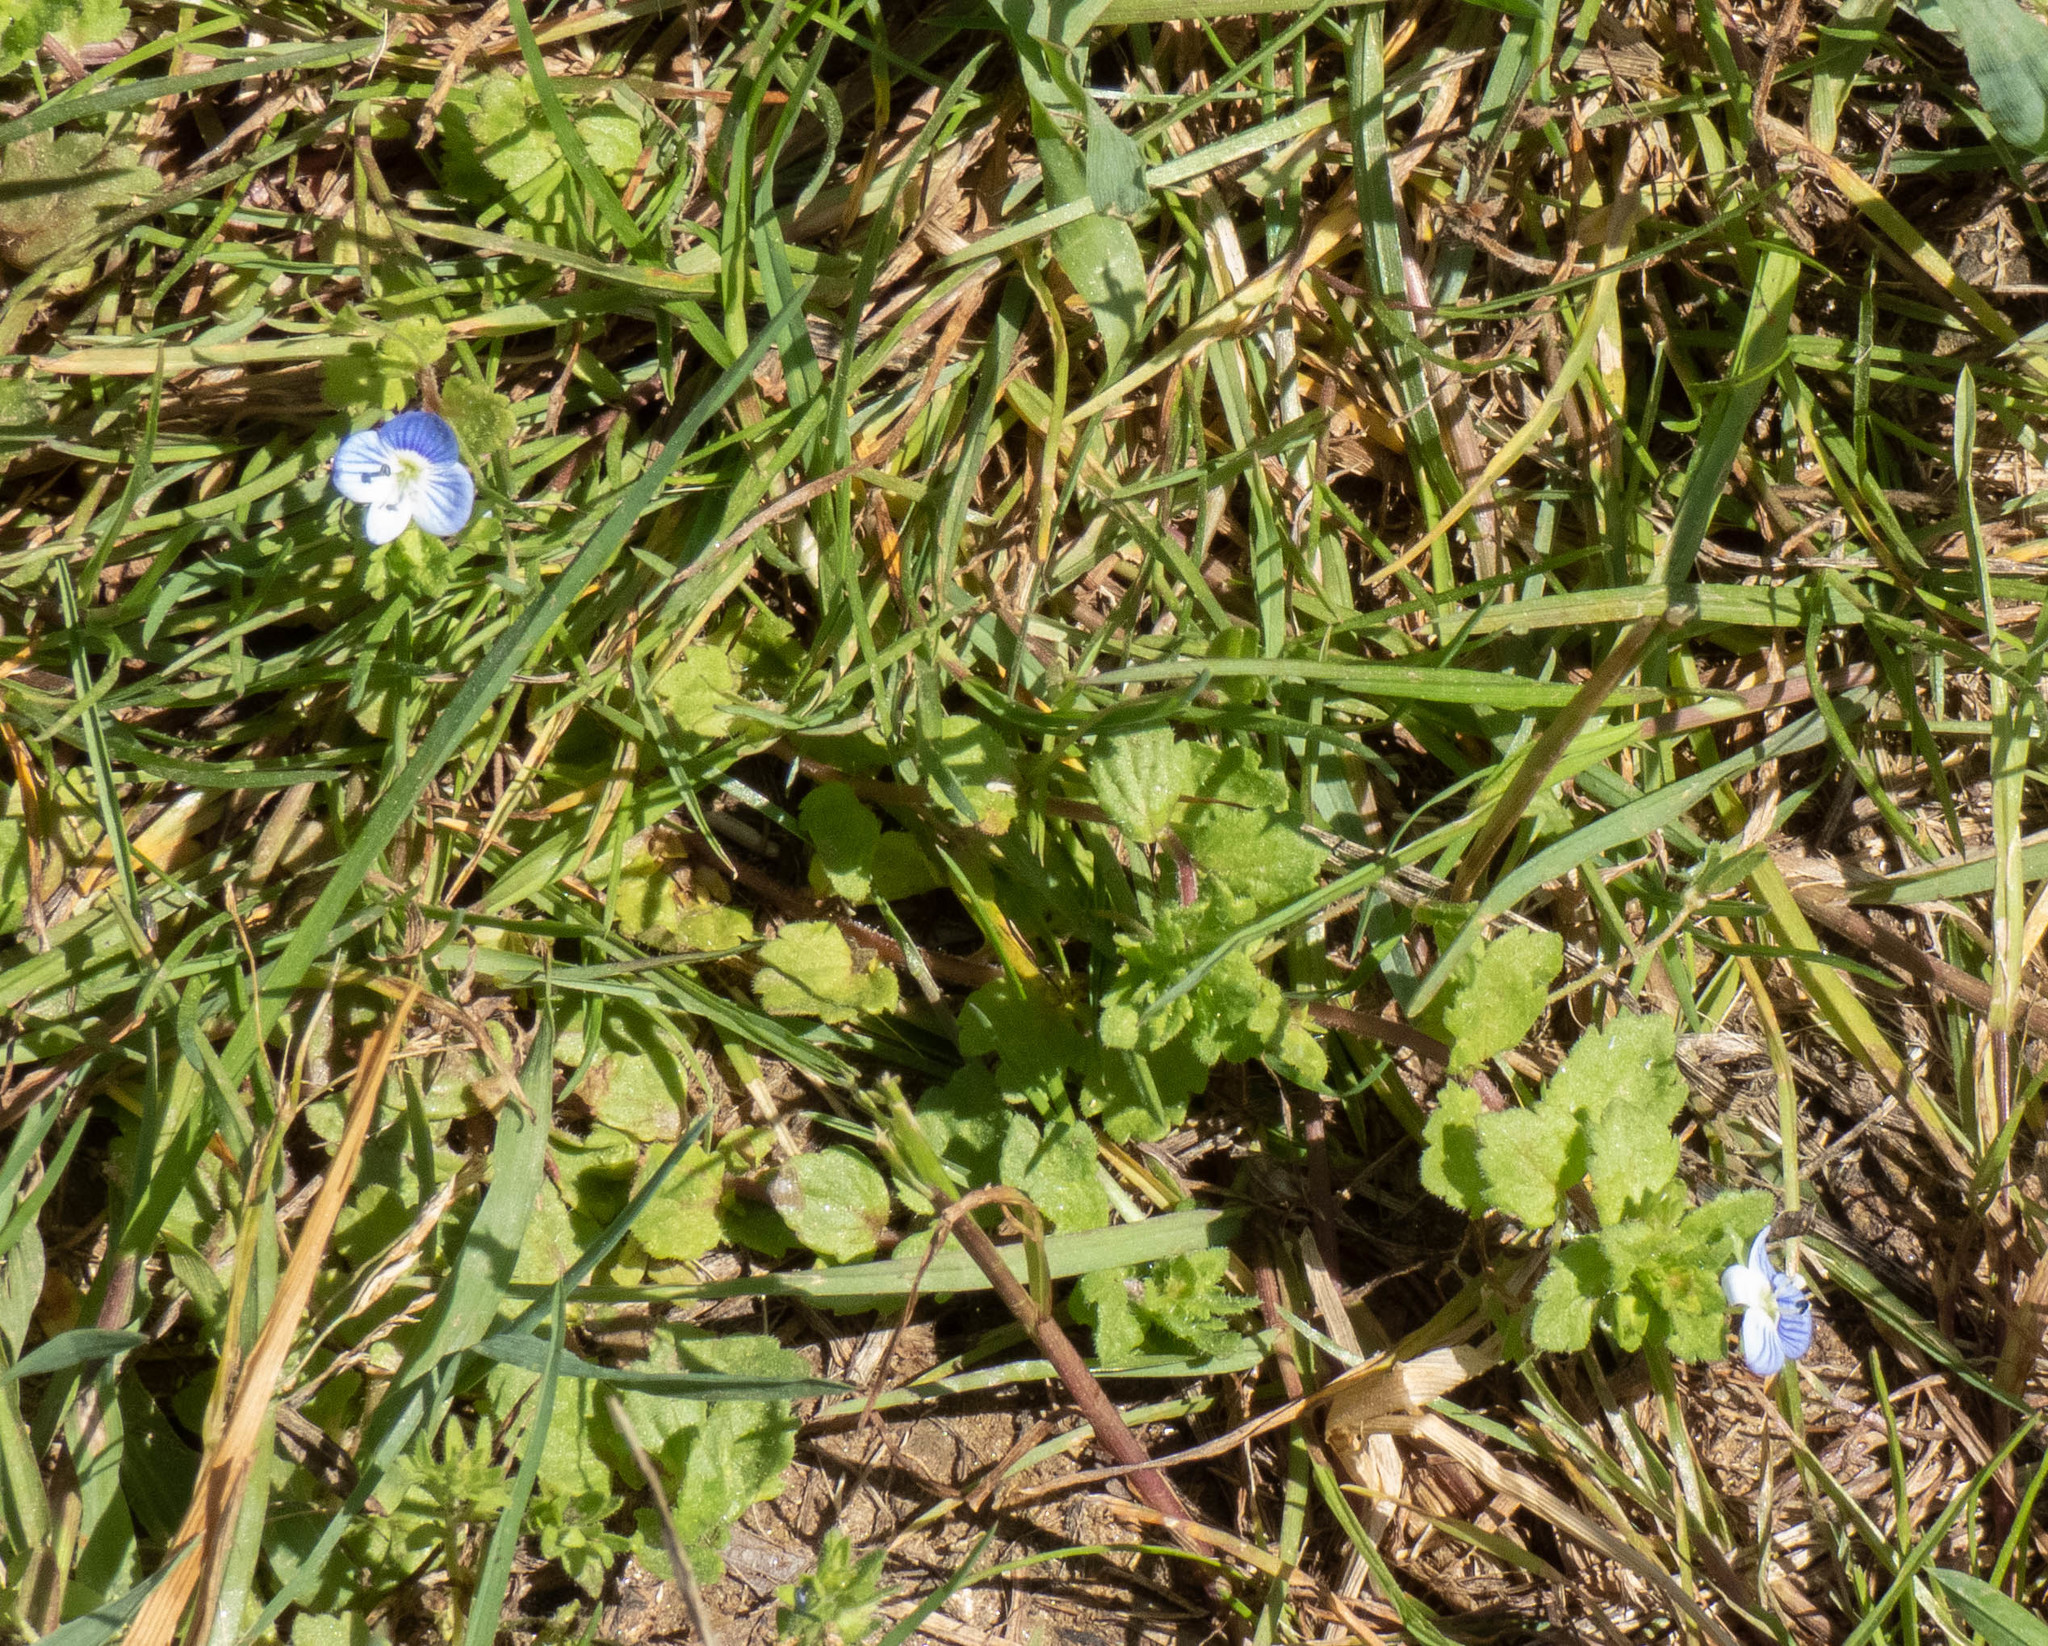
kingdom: Plantae
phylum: Tracheophyta
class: Magnoliopsida
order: Lamiales
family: Plantaginaceae
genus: Veronica
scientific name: Veronica persica
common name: Common field-speedwell
